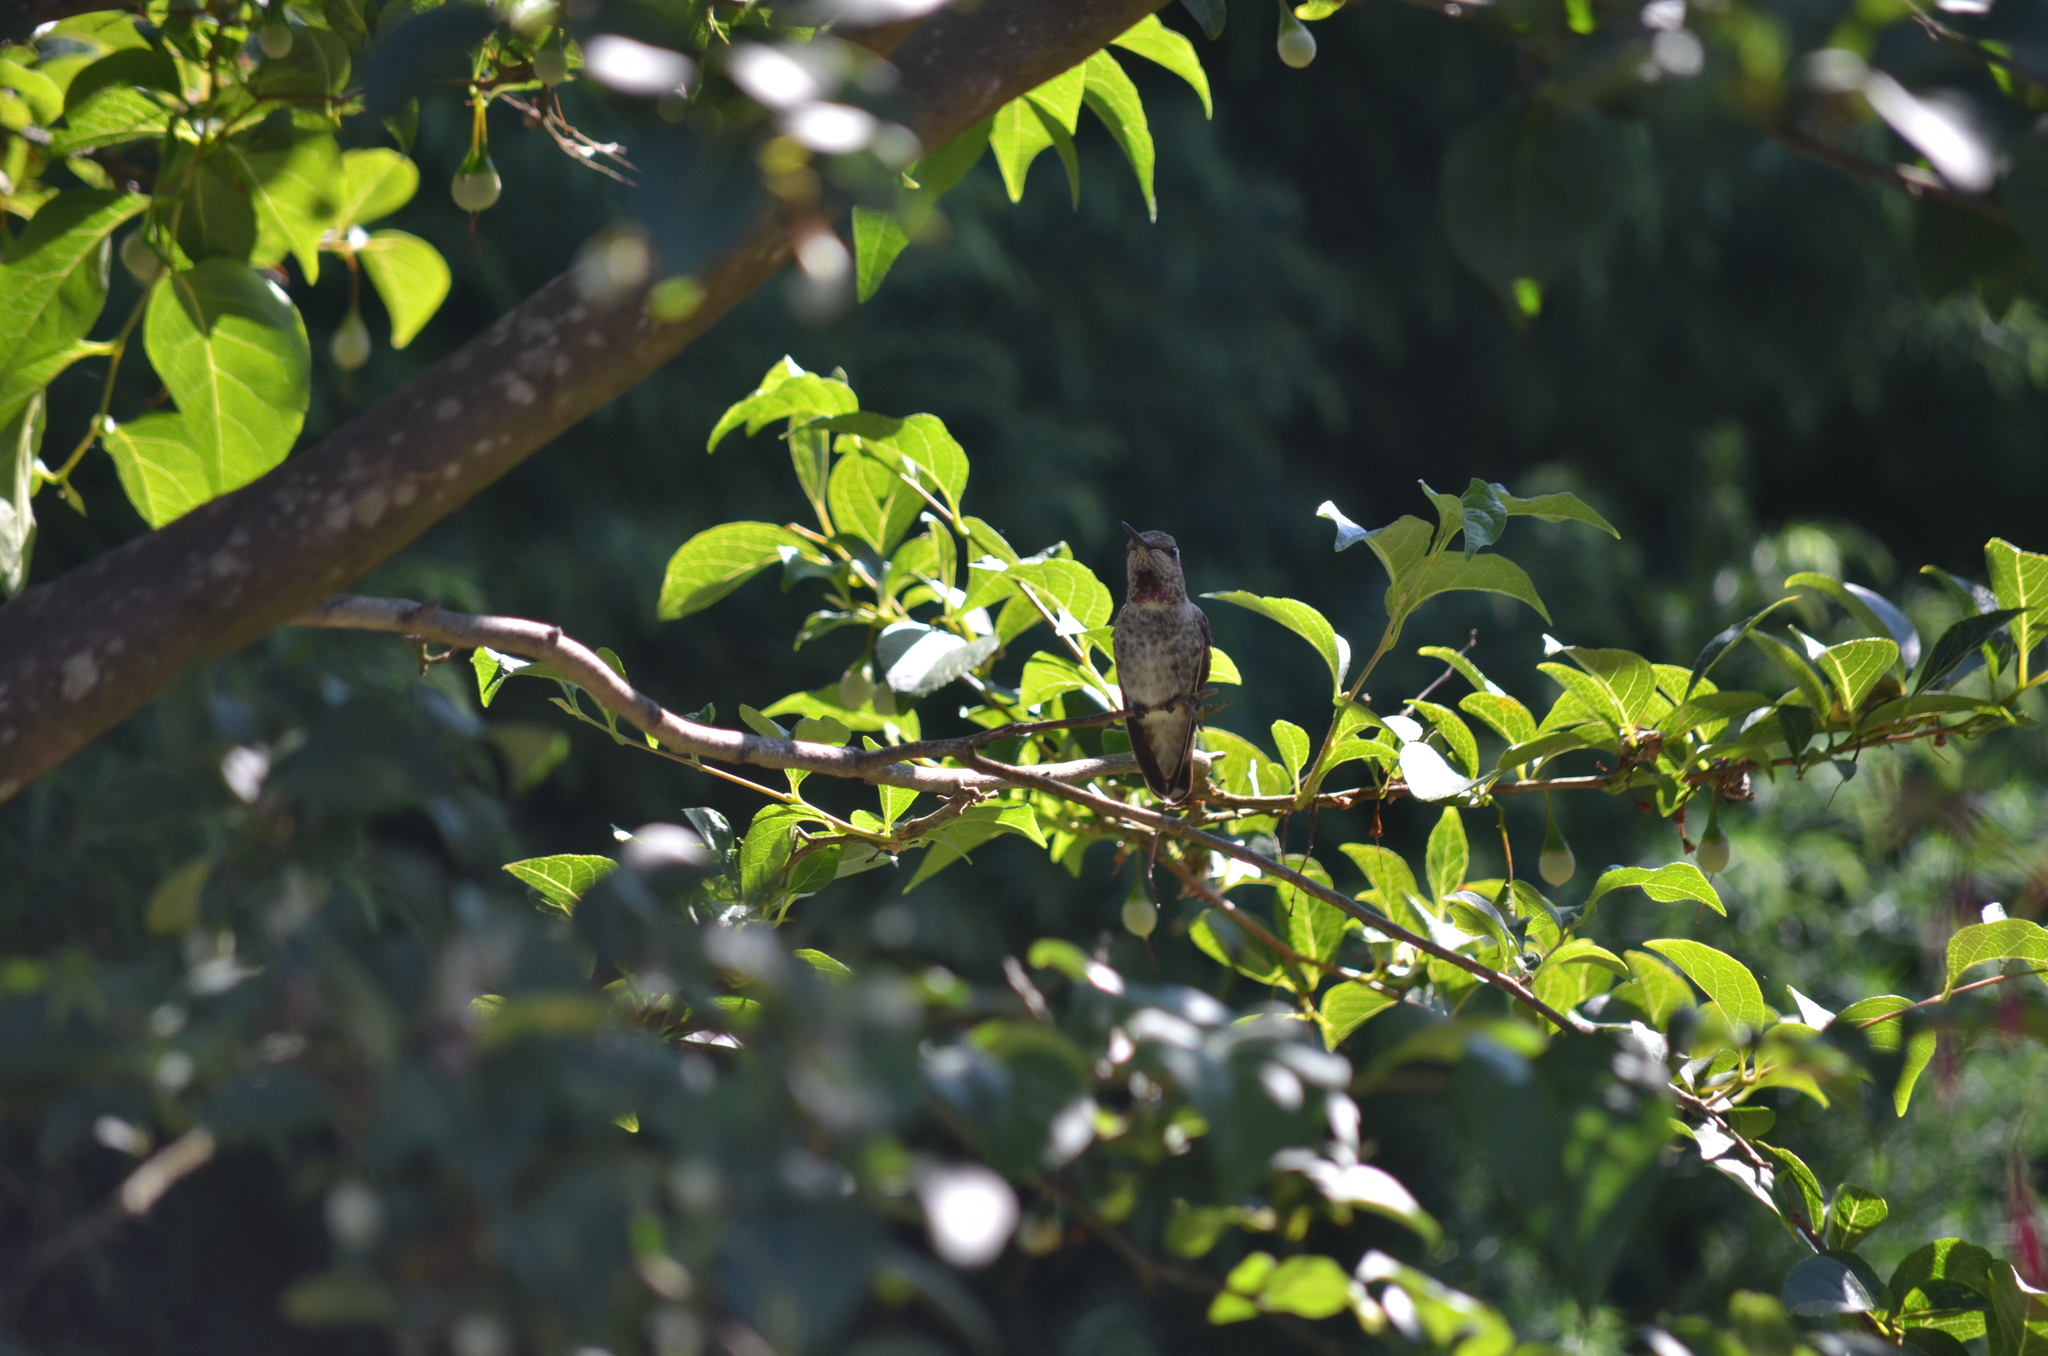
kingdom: Animalia
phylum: Chordata
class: Aves
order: Apodiformes
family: Trochilidae
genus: Calypte
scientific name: Calypte anna
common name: Anna's hummingbird
